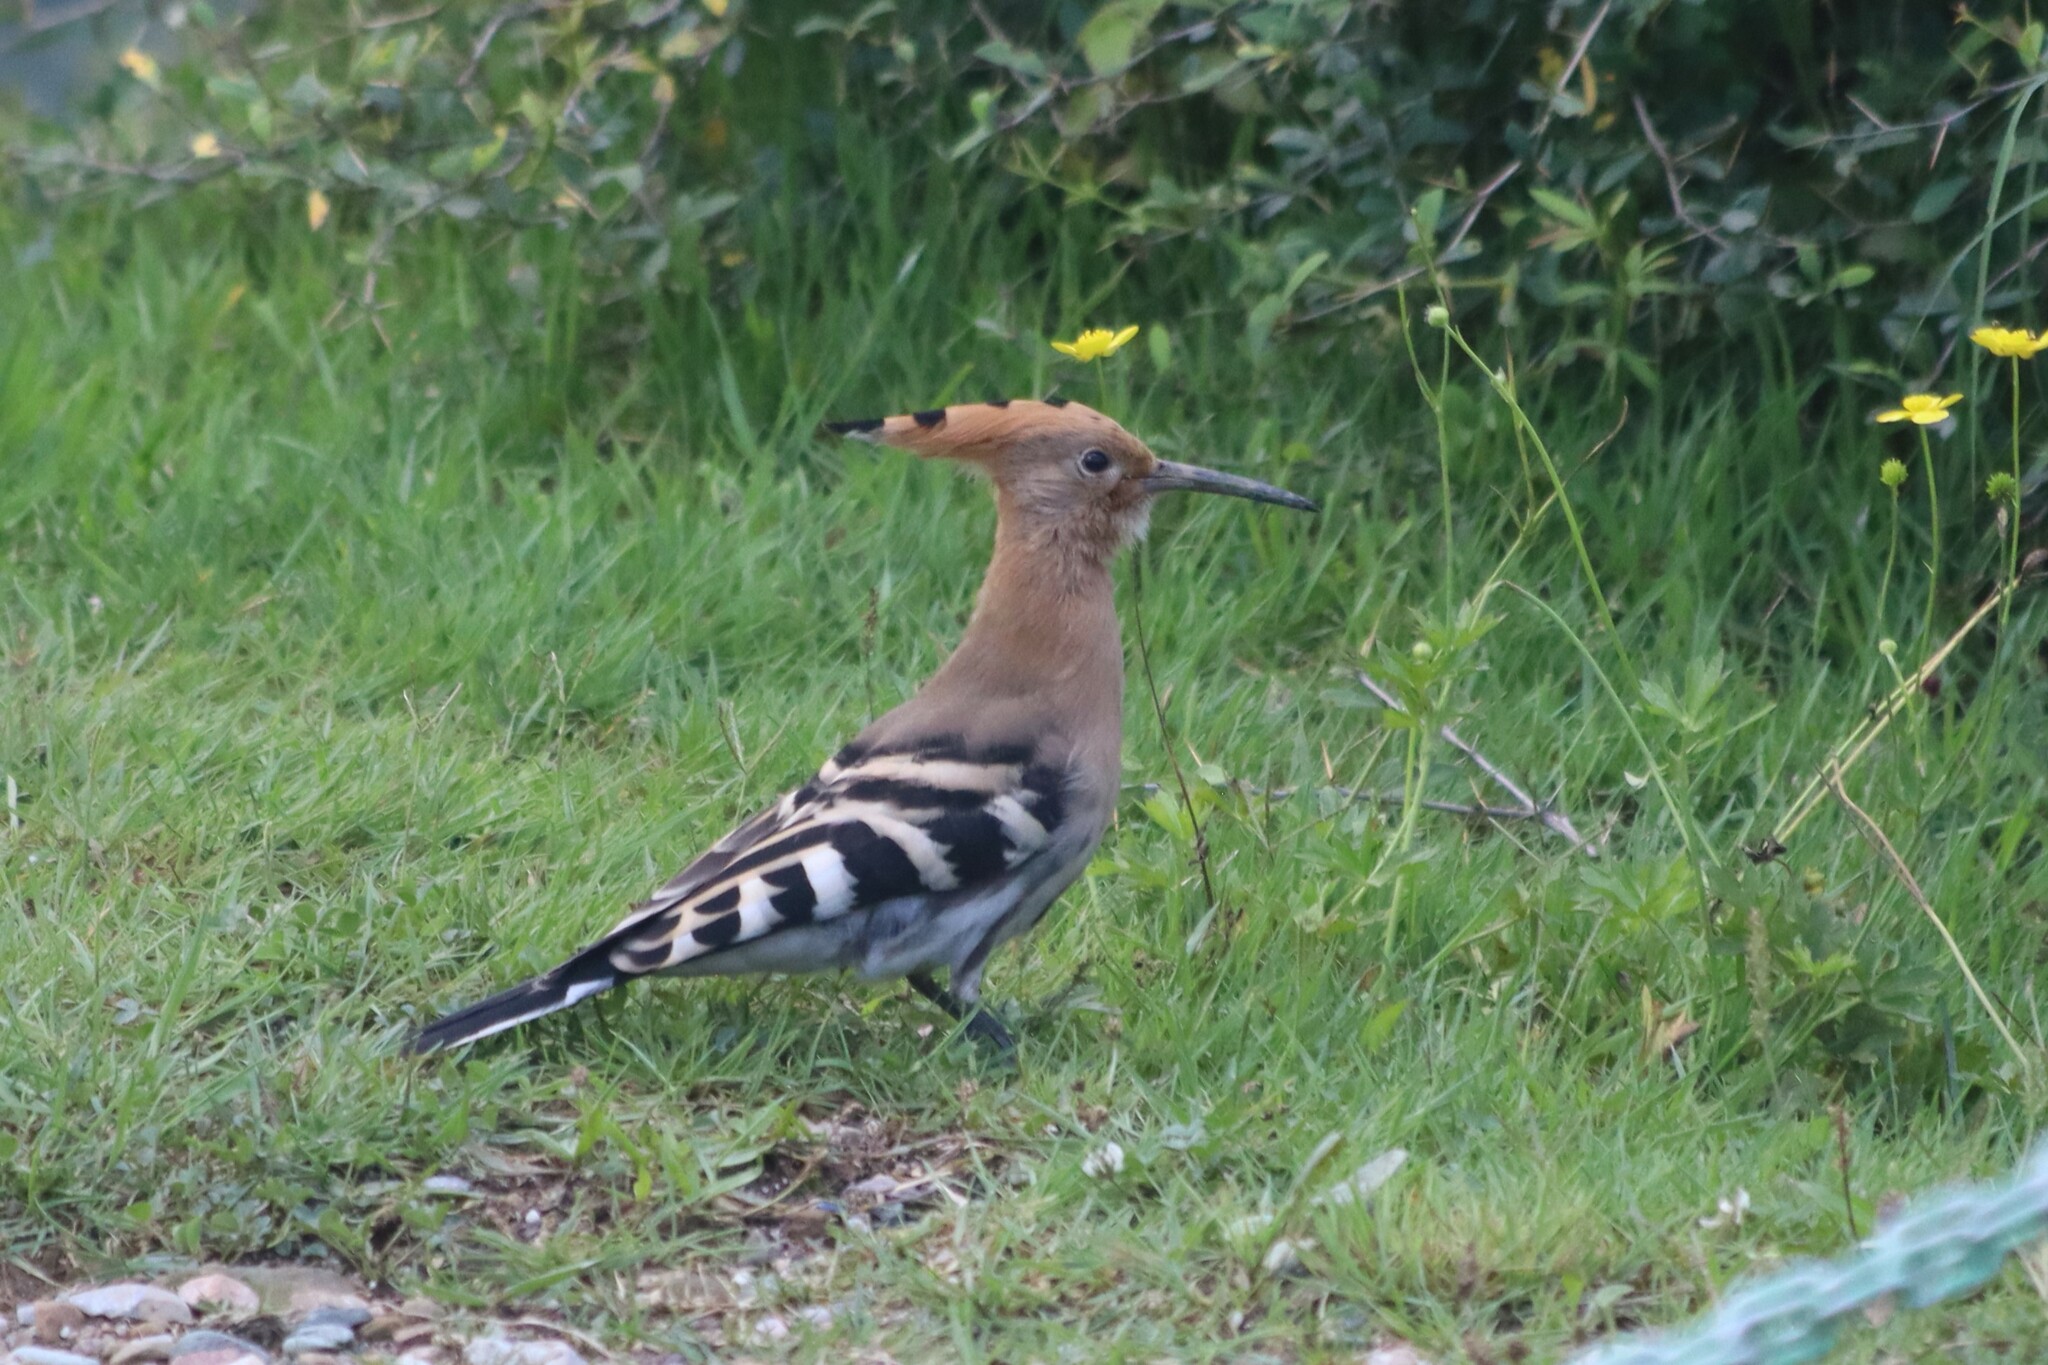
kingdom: Animalia
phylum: Chordata
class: Aves
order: Bucerotiformes
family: Upupidae
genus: Upupa
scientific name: Upupa epops
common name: Eurasian hoopoe
